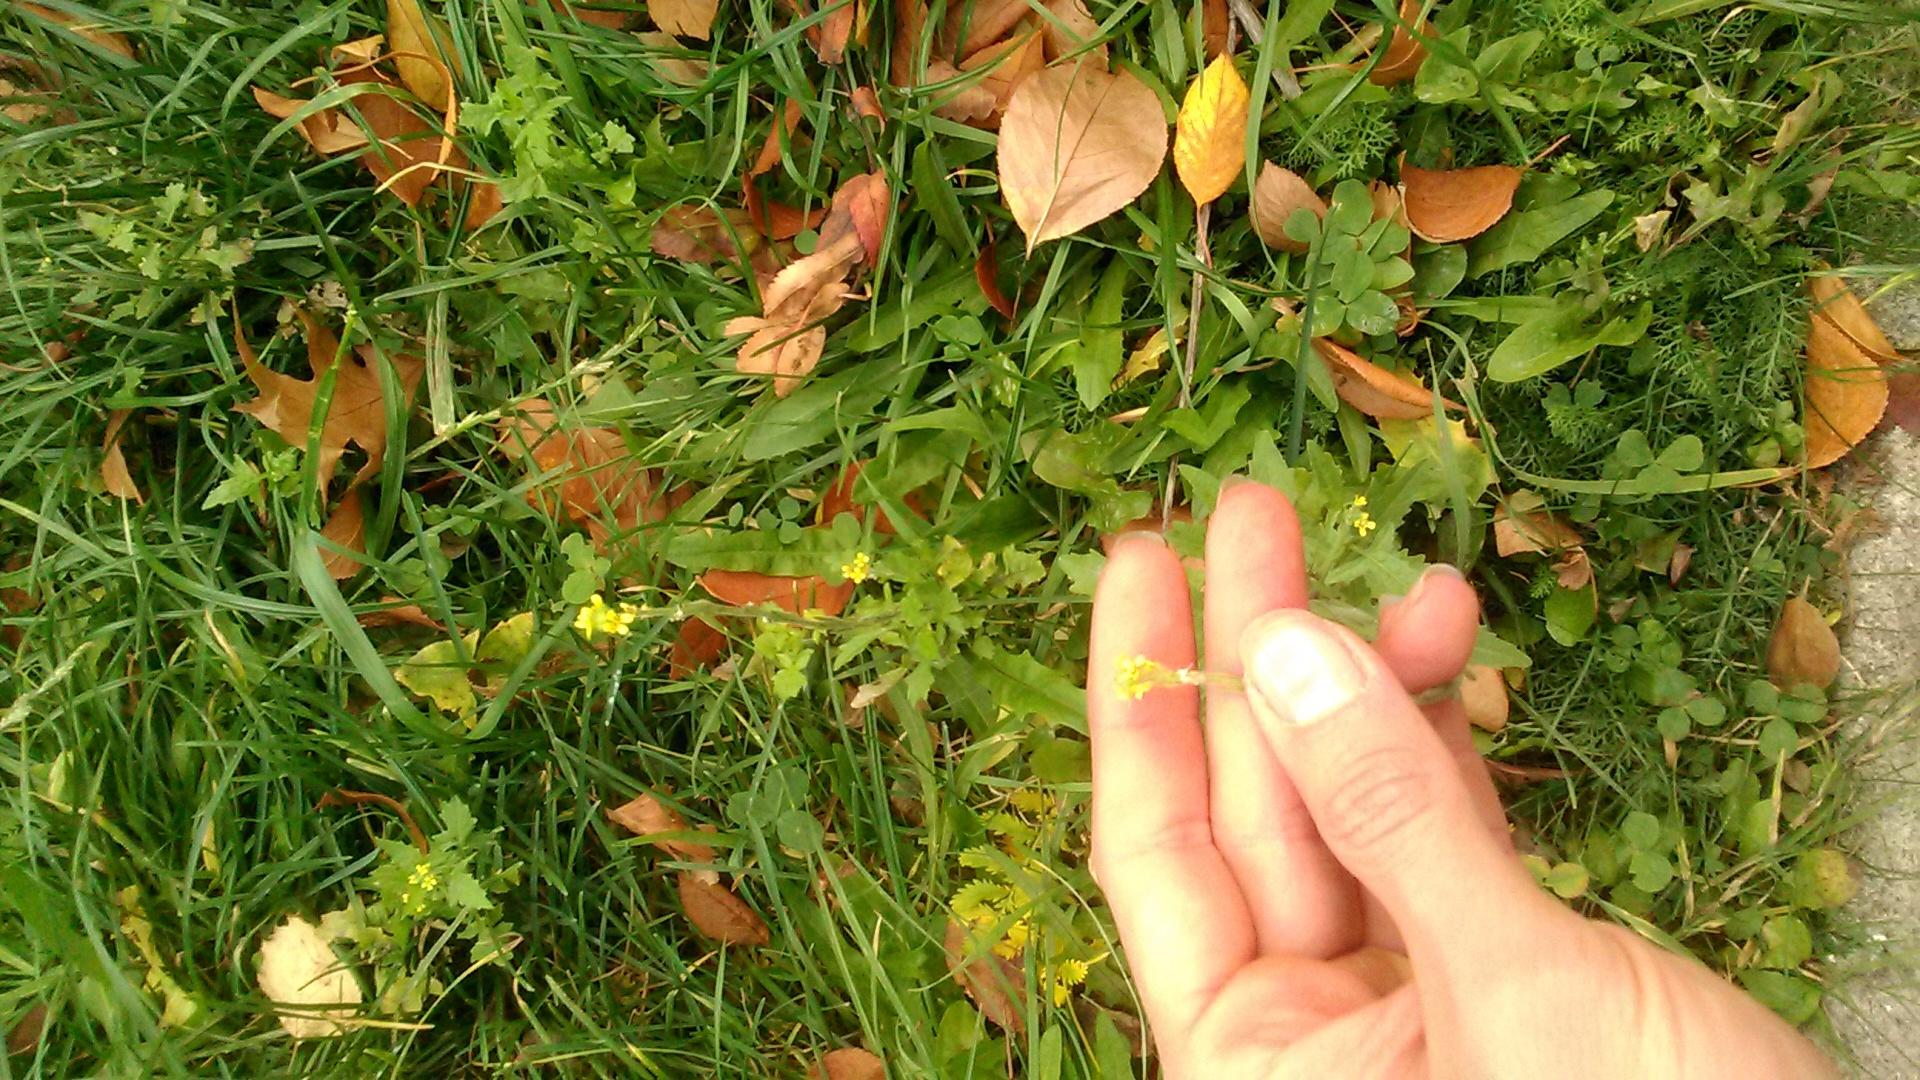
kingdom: Plantae
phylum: Tracheophyta
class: Magnoliopsida
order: Brassicales
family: Brassicaceae
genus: Sisymbrium
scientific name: Sisymbrium officinale
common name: Hedge mustard
